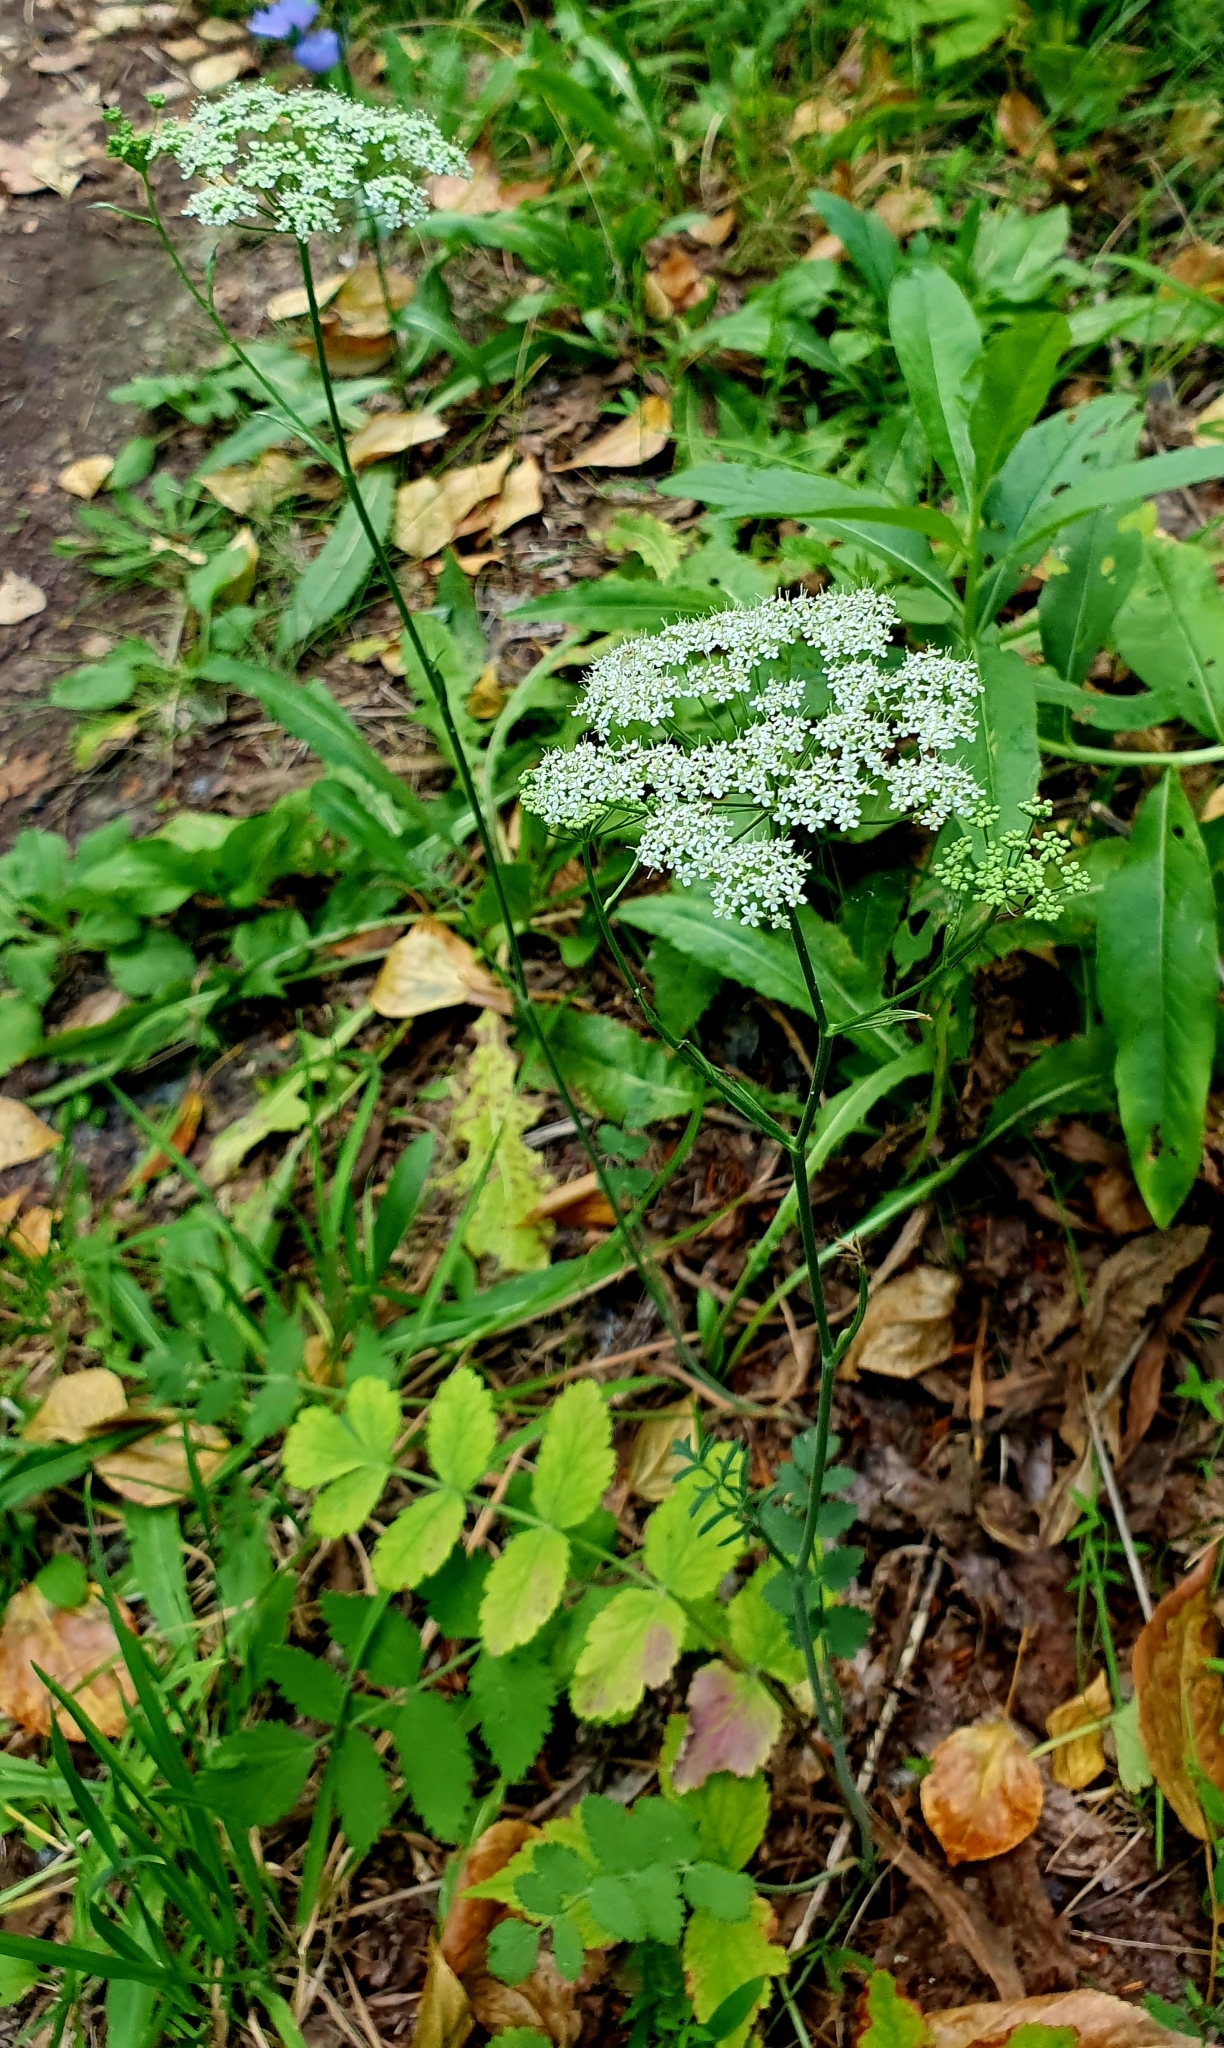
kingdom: Plantae
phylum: Tracheophyta
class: Magnoliopsida
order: Apiales
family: Apiaceae
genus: Pimpinella
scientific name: Pimpinella saxifraga
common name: Burnet-saxifrage
